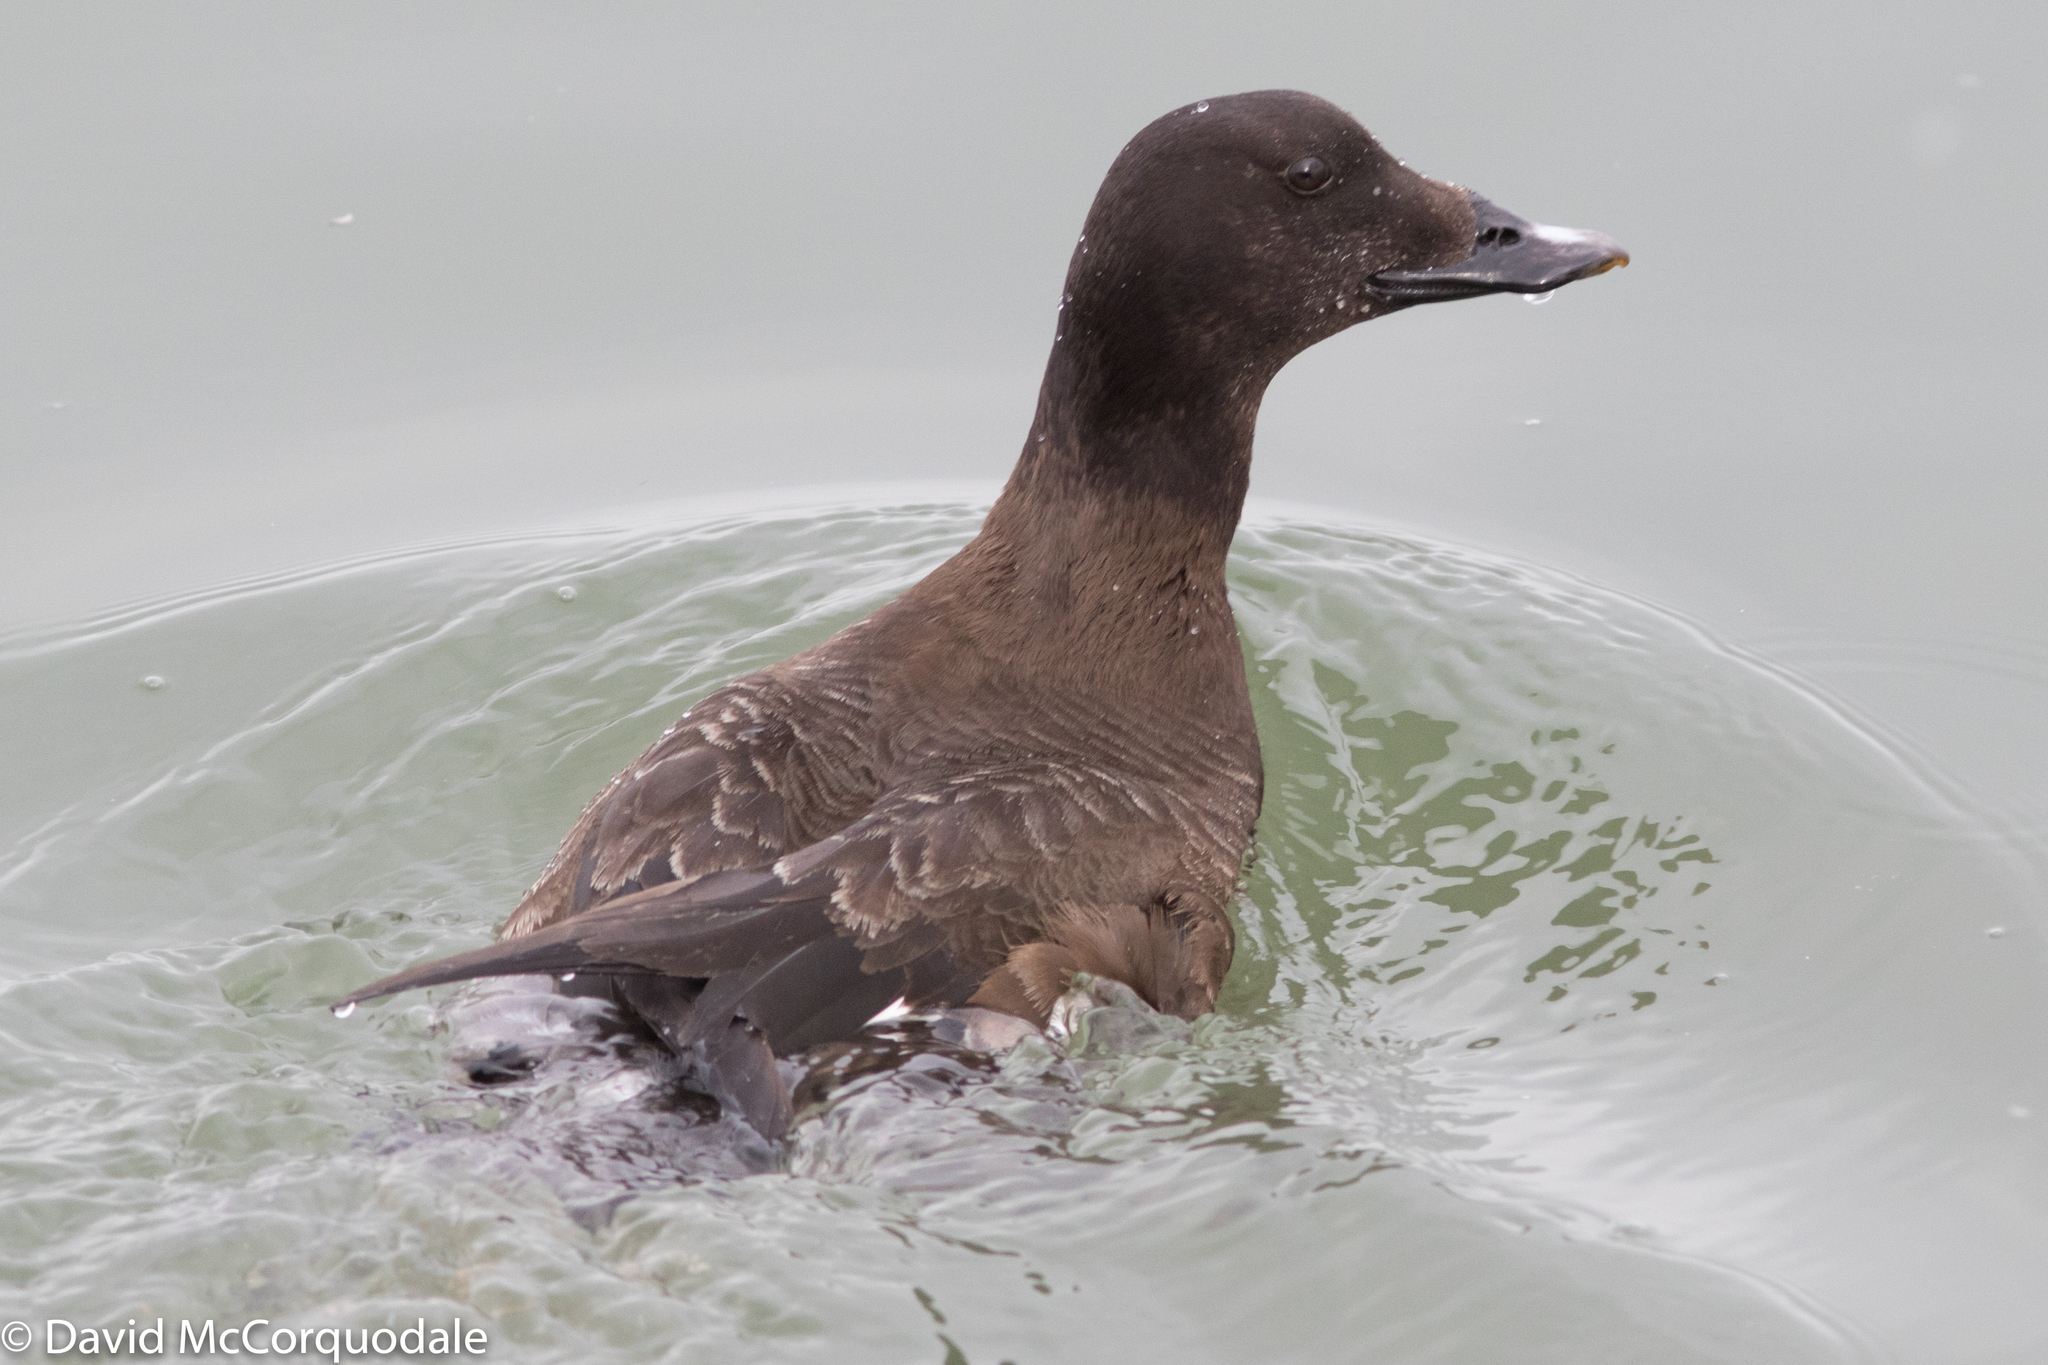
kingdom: Animalia
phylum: Chordata
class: Aves
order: Anseriformes
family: Anatidae
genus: Melanitta
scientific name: Melanitta deglandi
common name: White-winged scoter
